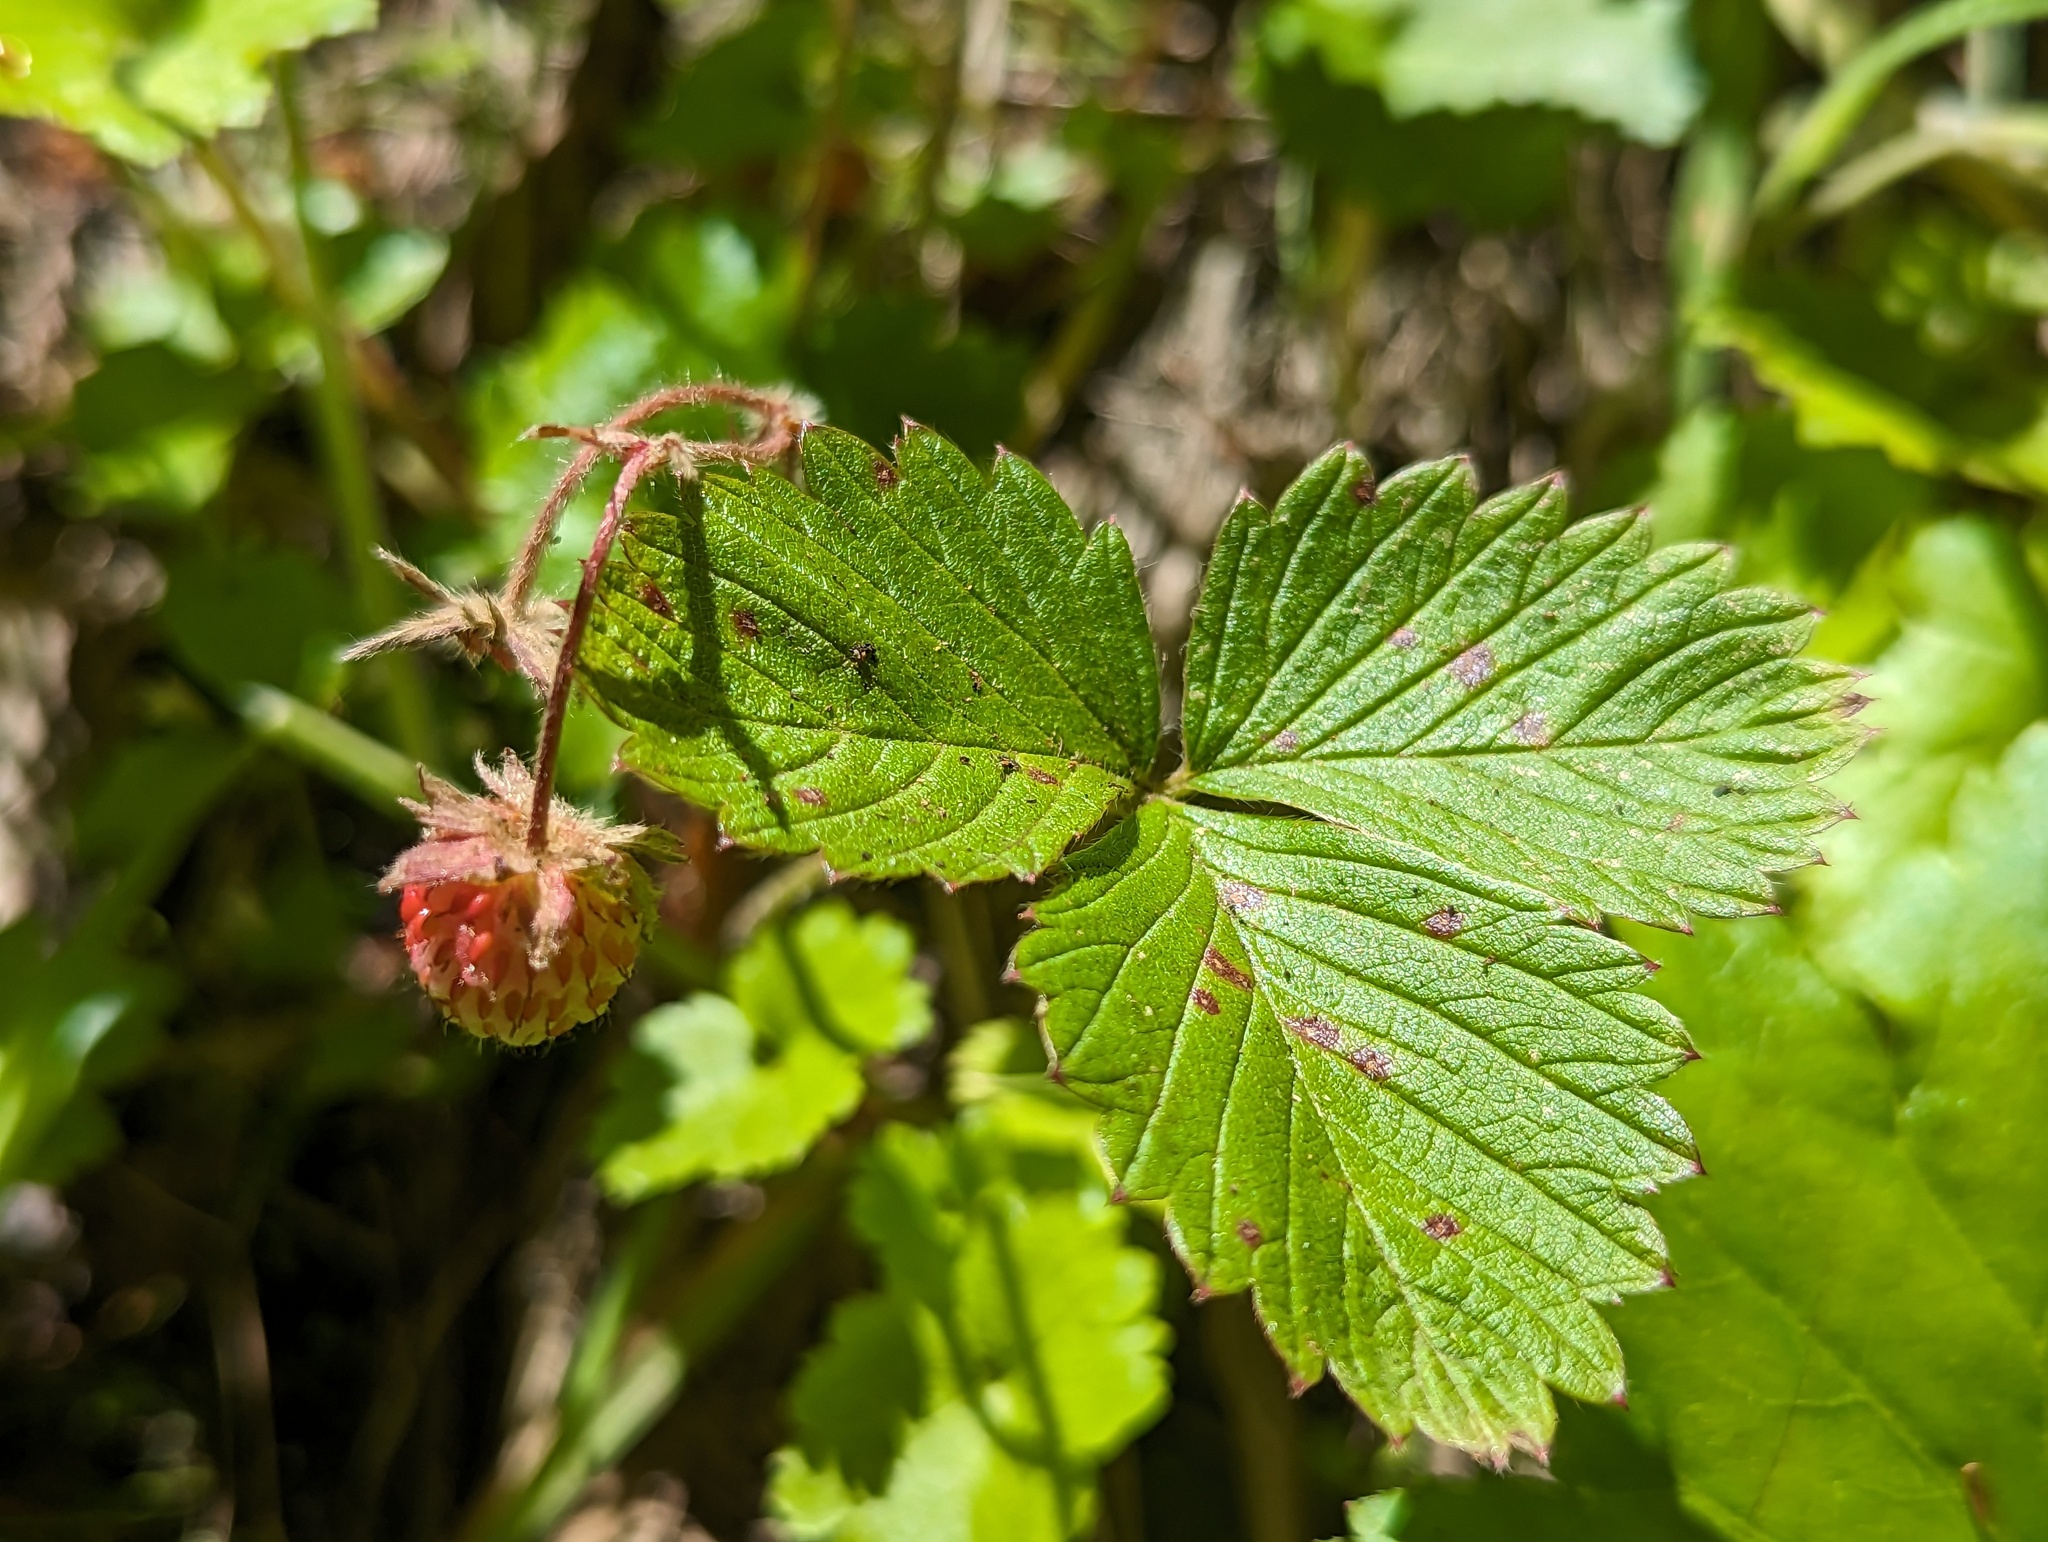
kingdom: Plantae
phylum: Tracheophyta
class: Magnoliopsida
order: Rosales
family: Rosaceae
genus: Fragaria
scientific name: Fragaria vesca
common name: Wild strawberry
